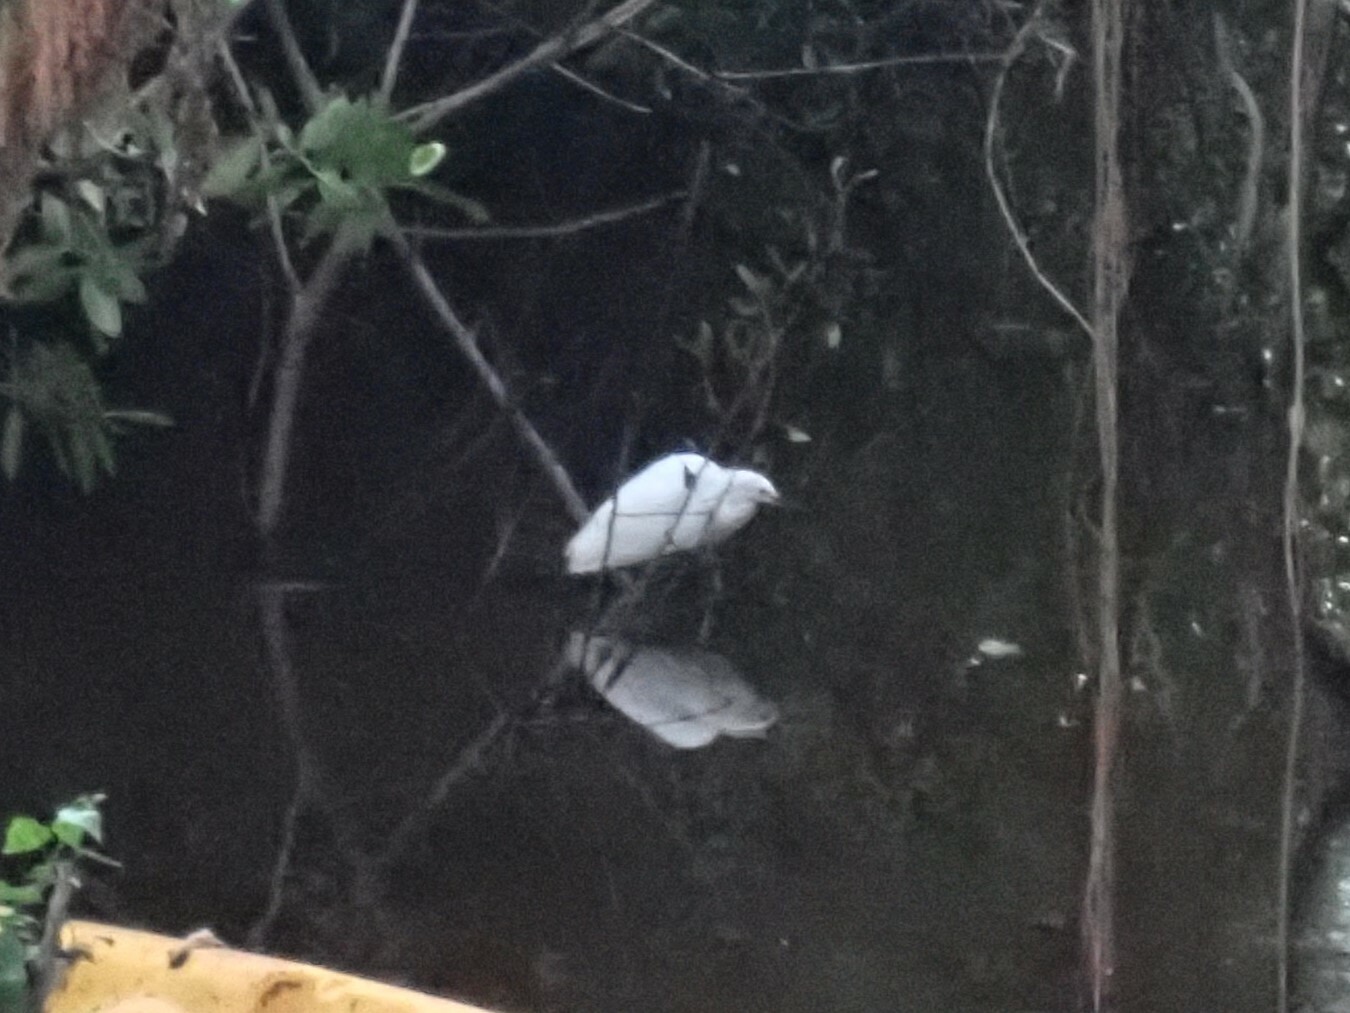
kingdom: Animalia
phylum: Chordata
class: Aves
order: Pelecaniformes
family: Ardeidae
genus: Egretta
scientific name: Egretta thula
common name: Snowy egret
